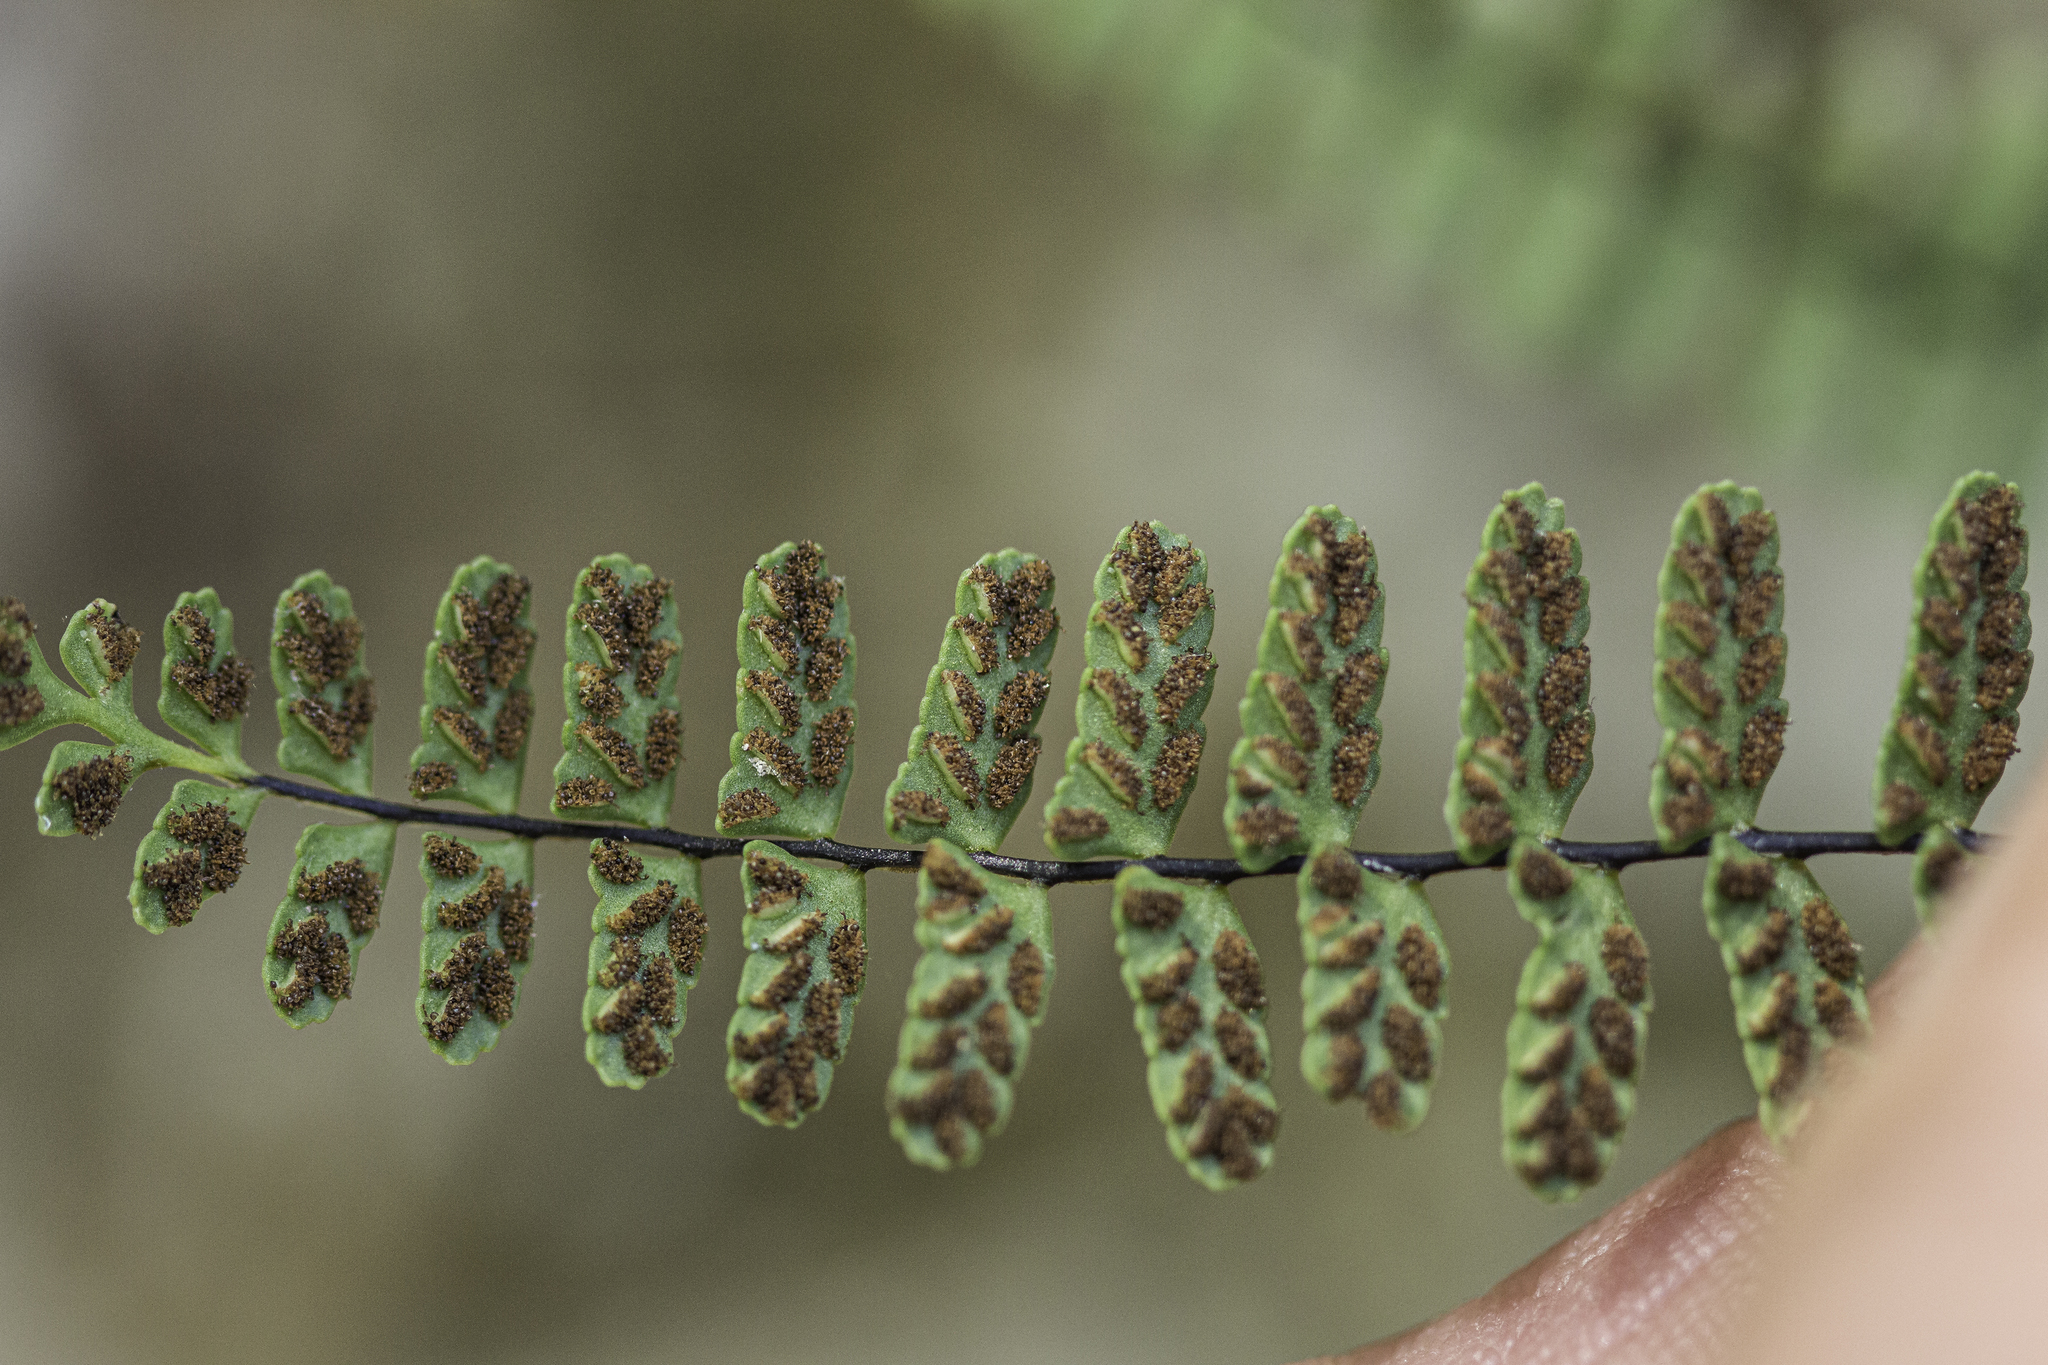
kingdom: Plantae
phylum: Tracheophyta
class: Polypodiopsida
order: Polypodiales
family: Aspleniaceae
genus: Asplenium
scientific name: Asplenium resiliens
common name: Blackstem spleenwort
